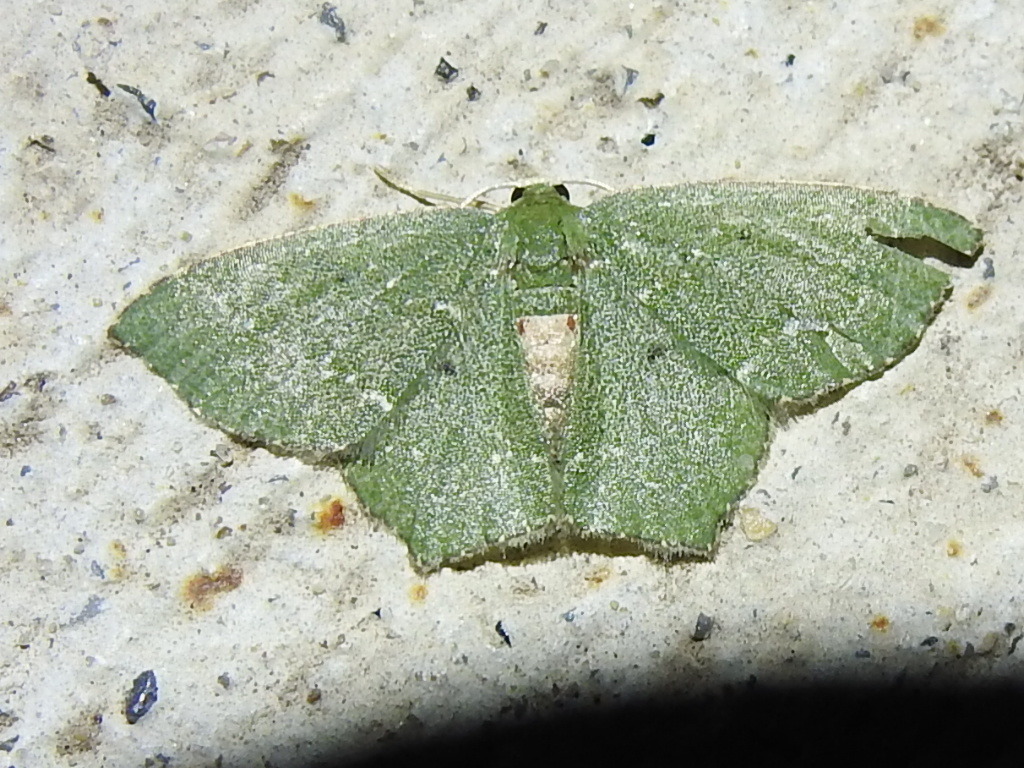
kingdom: Animalia
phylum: Arthropoda
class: Insecta
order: Lepidoptera
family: Geometridae
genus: Chloropteryx
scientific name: Chloropteryx nordicaria
